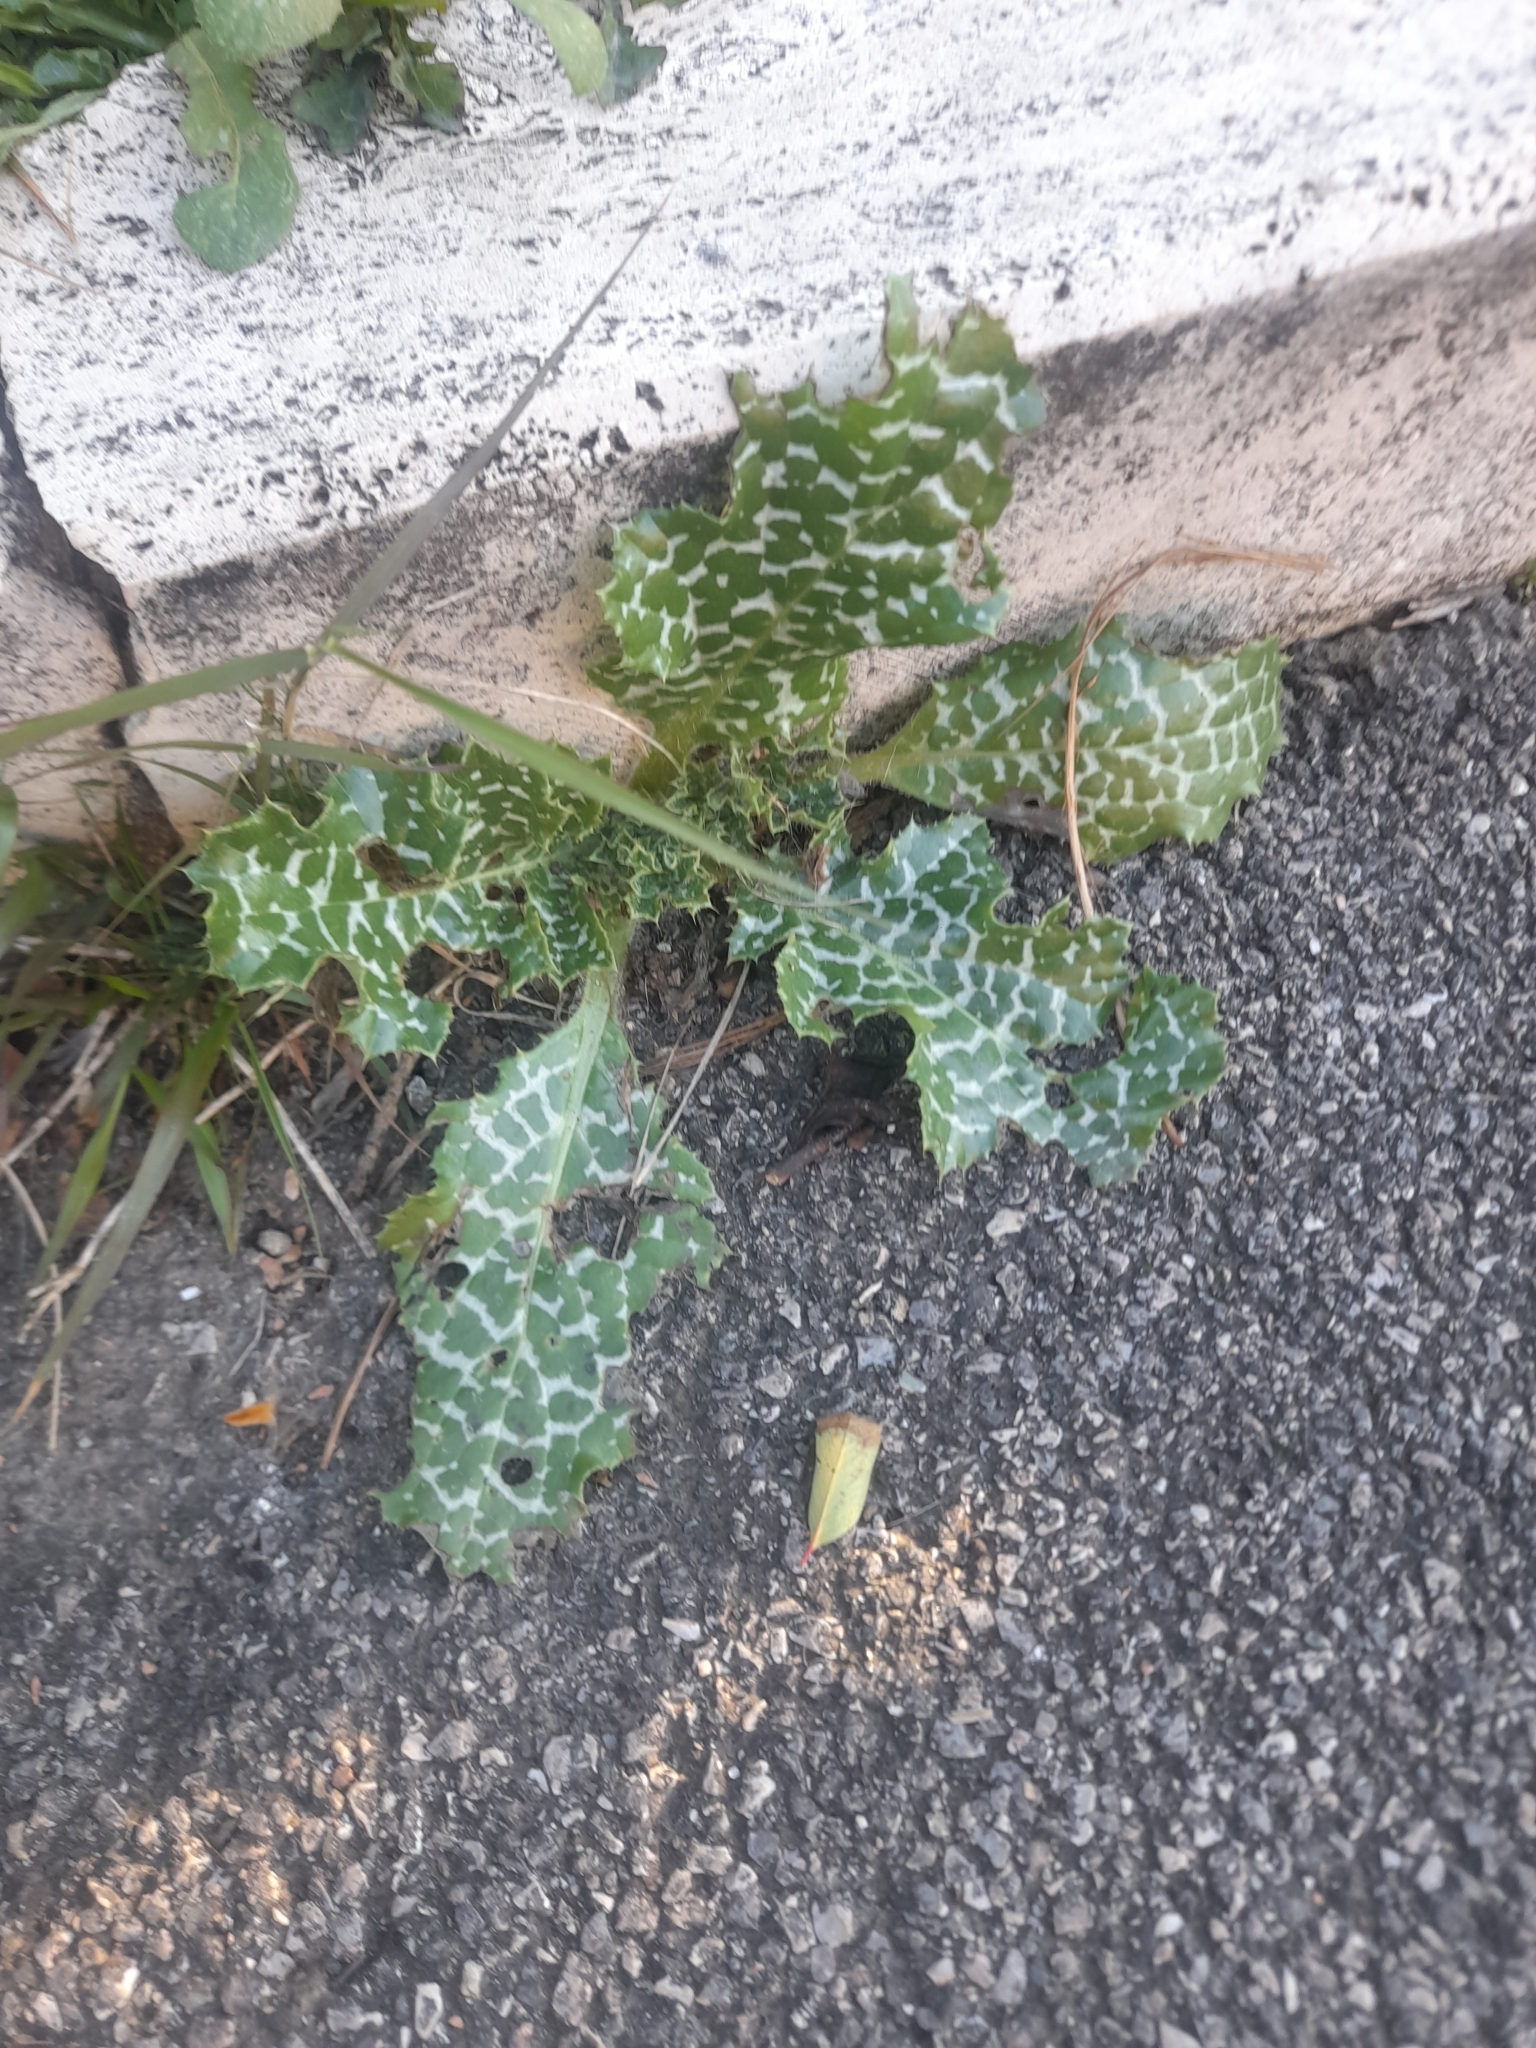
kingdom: Plantae
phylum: Tracheophyta
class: Magnoliopsida
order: Asterales
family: Asteraceae
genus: Silybum
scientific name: Silybum marianum
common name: Milk thistle
